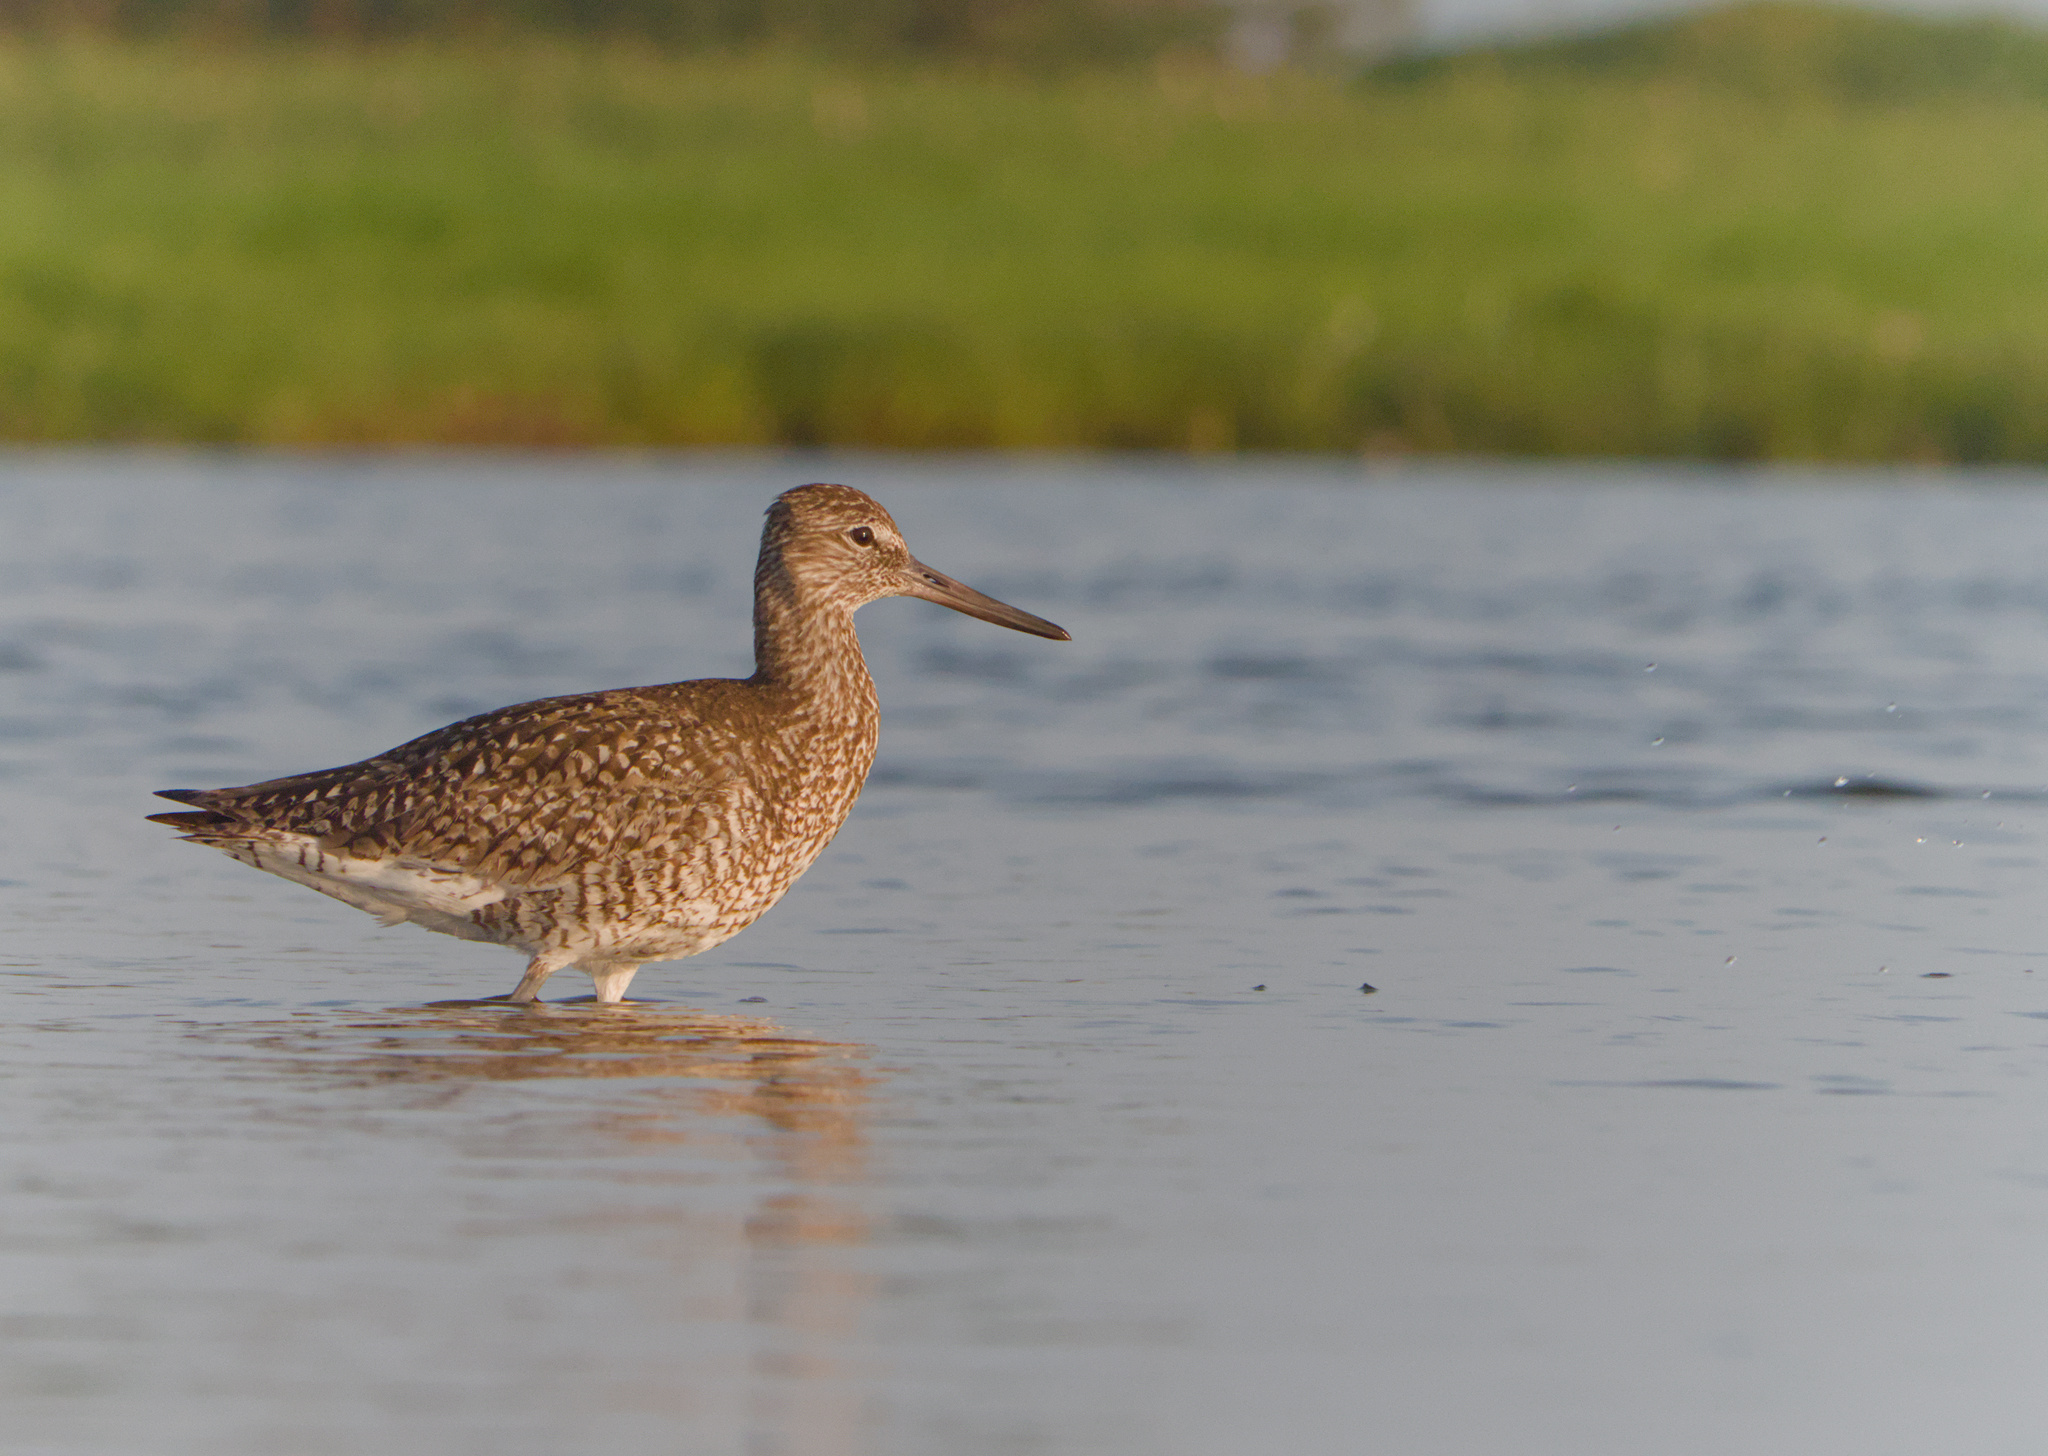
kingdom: Animalia
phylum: Chordata
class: Aves
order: Charadriiformes
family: Scolopacidae
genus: Tringa
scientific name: Tringa semipalmata
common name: Willet
